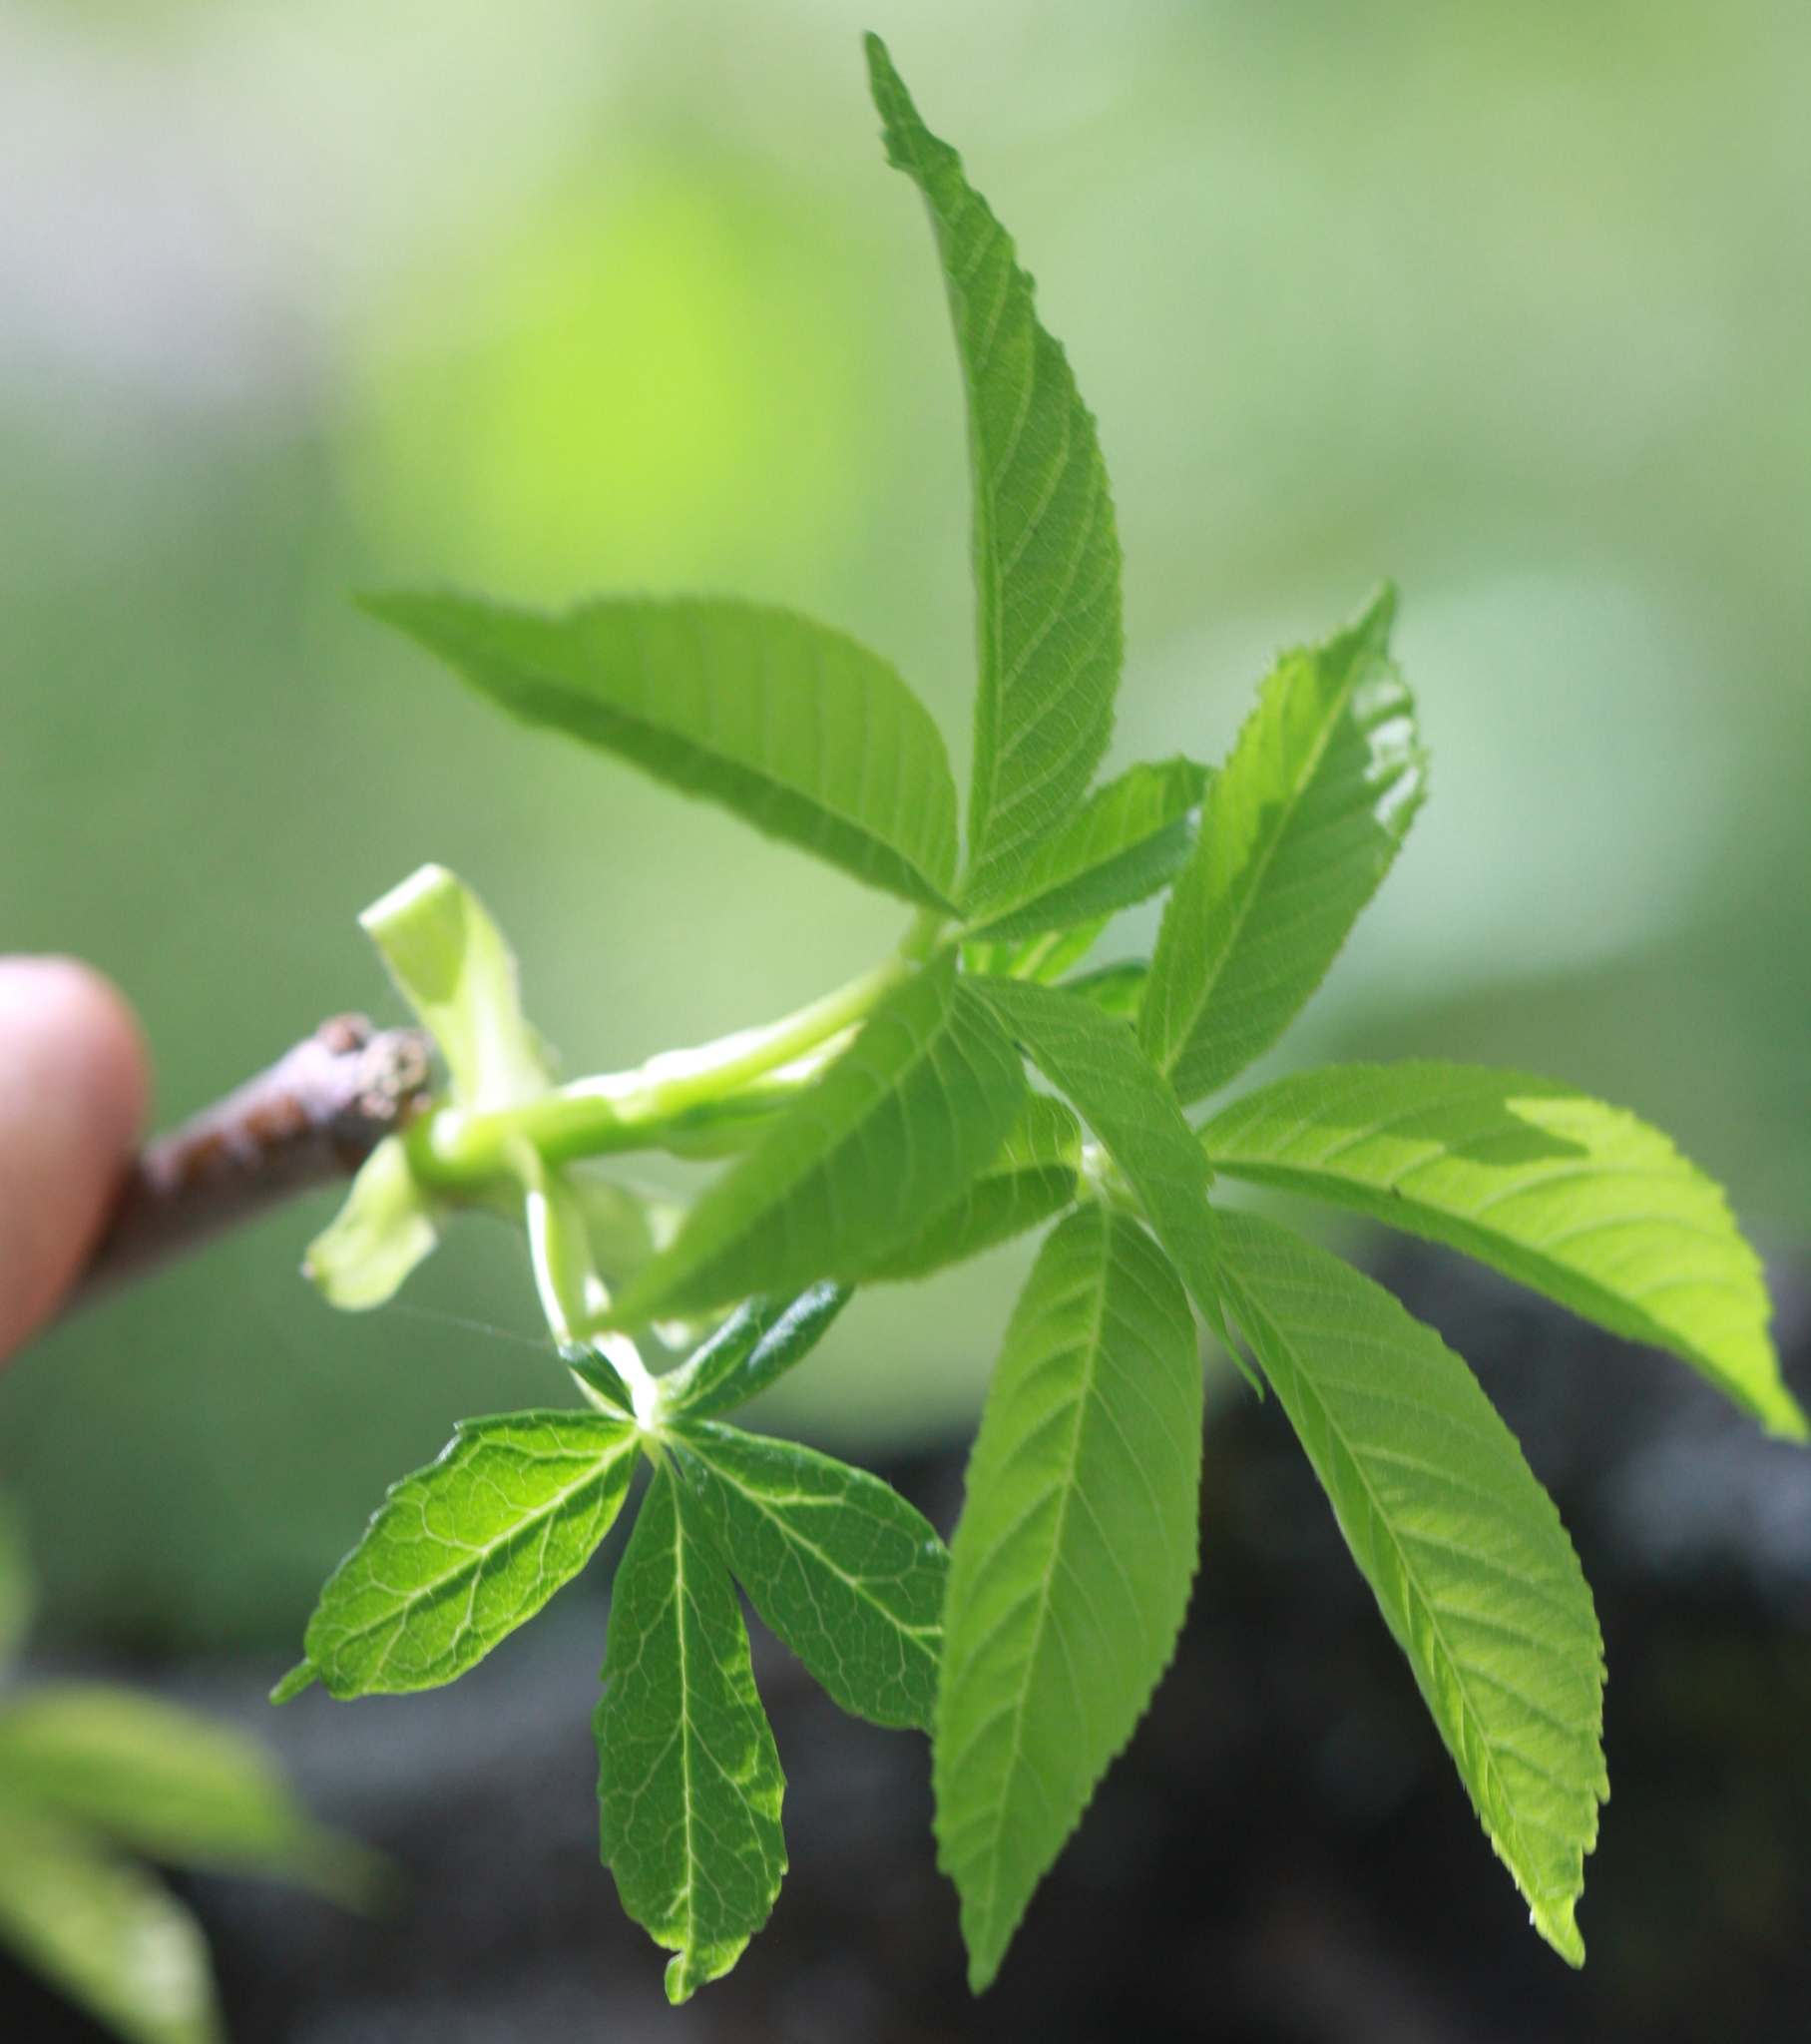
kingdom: Plantae
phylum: Tracheophyta
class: Magnoliopsida
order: Sapindales
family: Sapindaceae
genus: Aesculus
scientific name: Aesculus californica
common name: California buckeye
